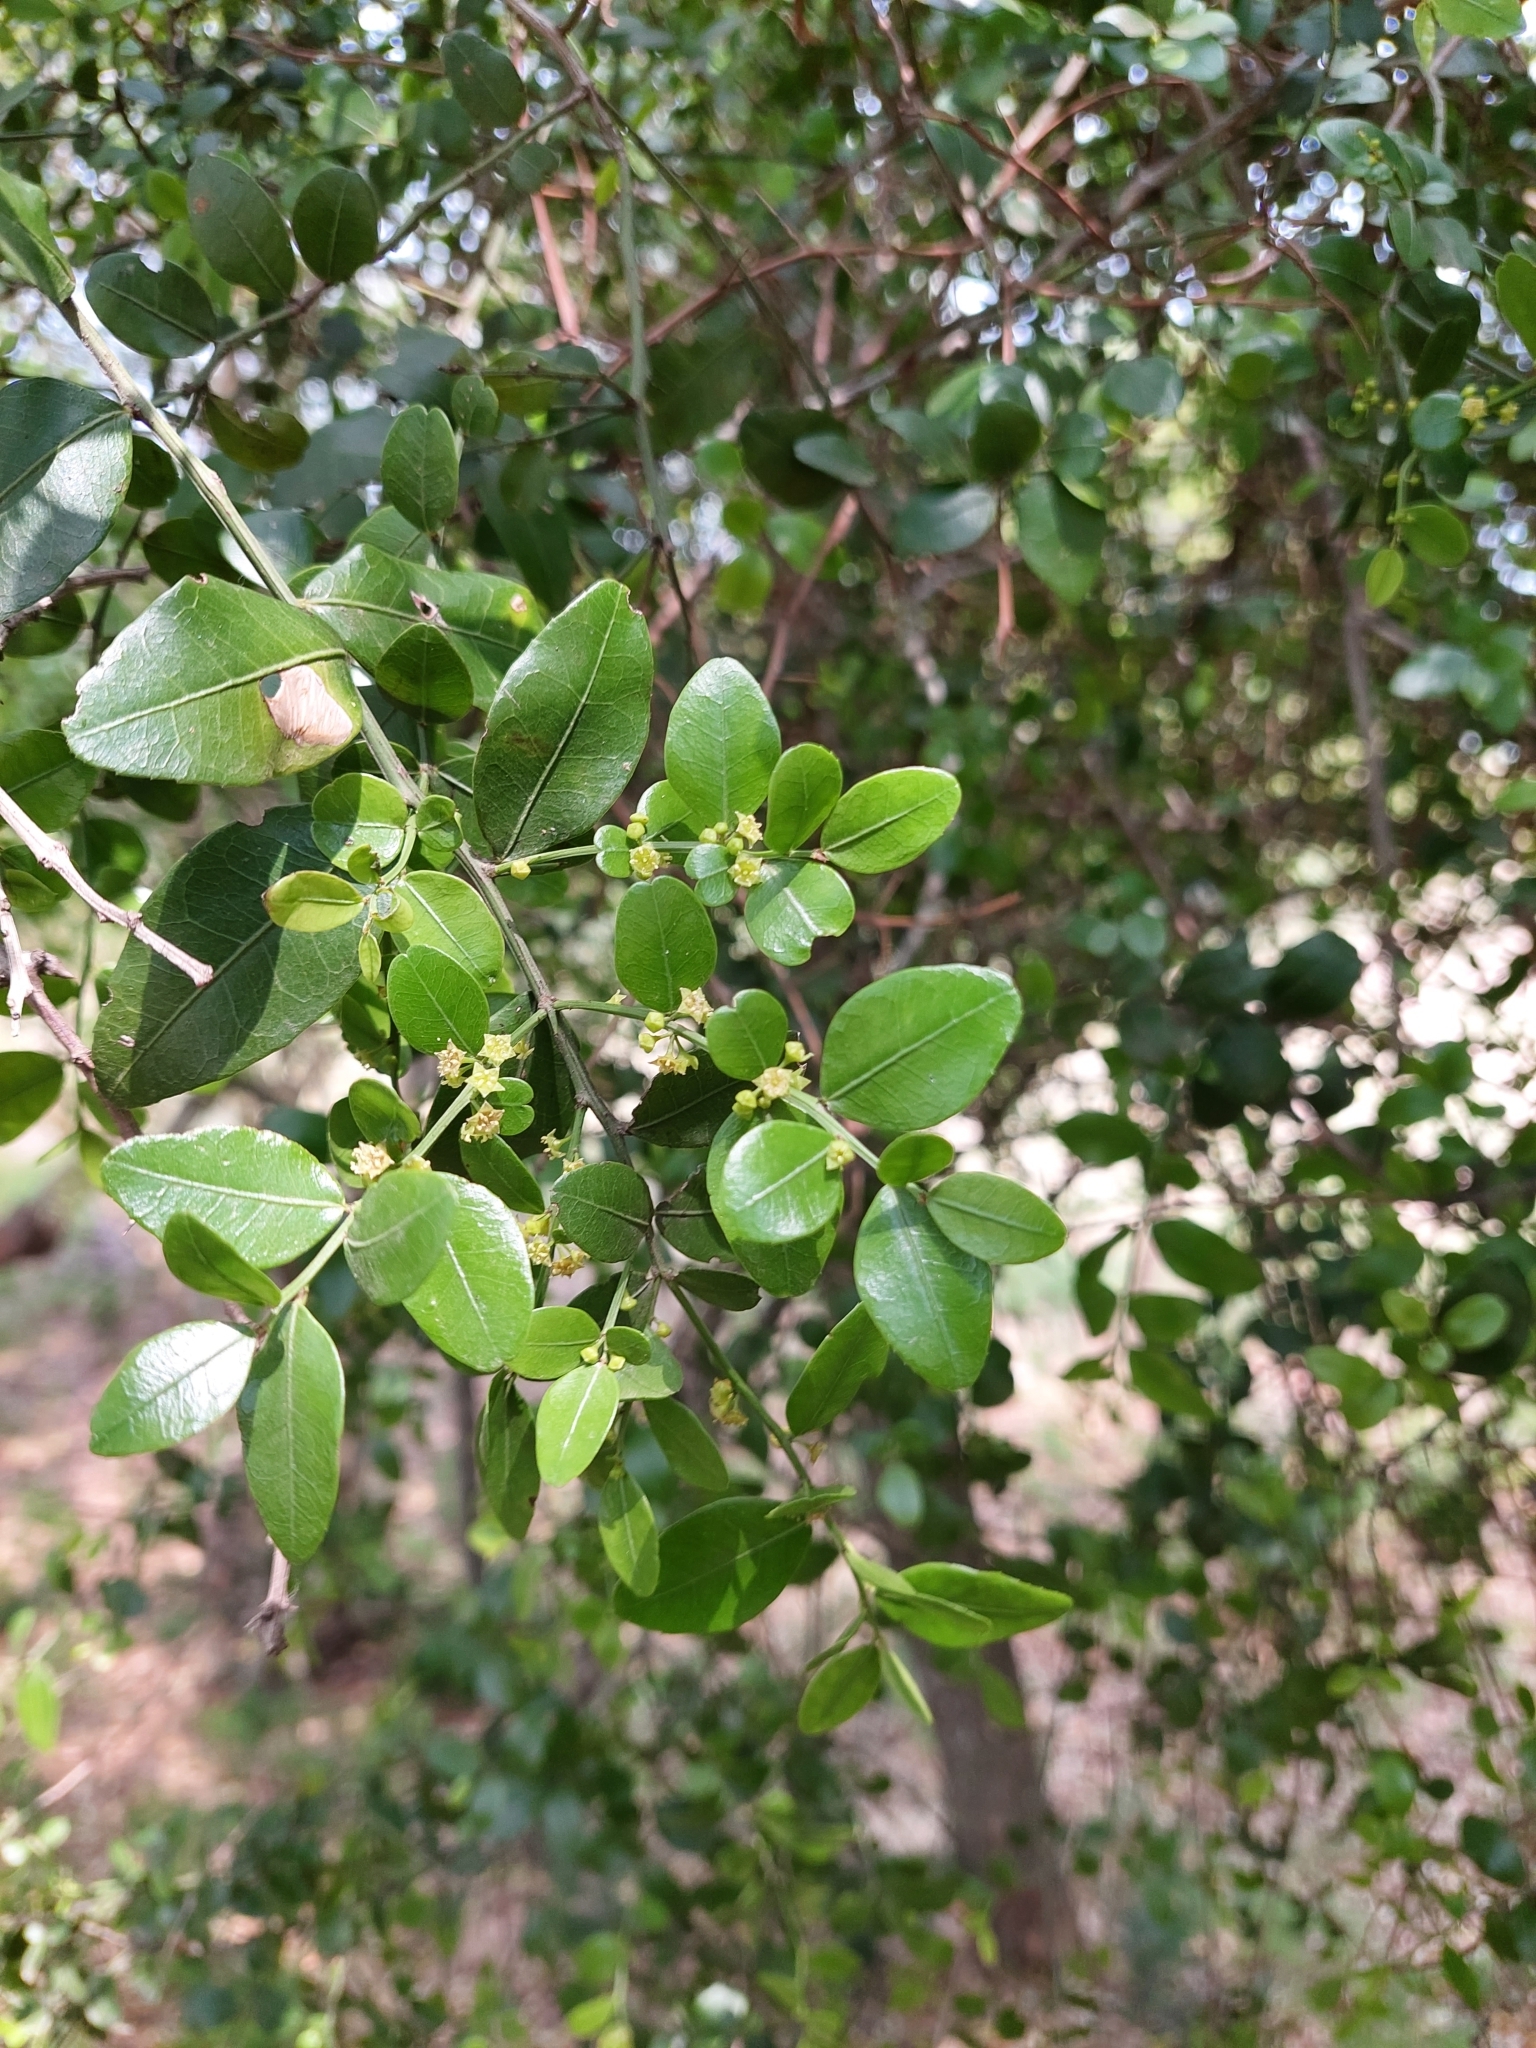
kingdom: Plantae
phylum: Tracheophyta
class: Magnoliopsida
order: Rosales
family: Rhamnaceae
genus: Scutia
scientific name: Scutia buxifolia
